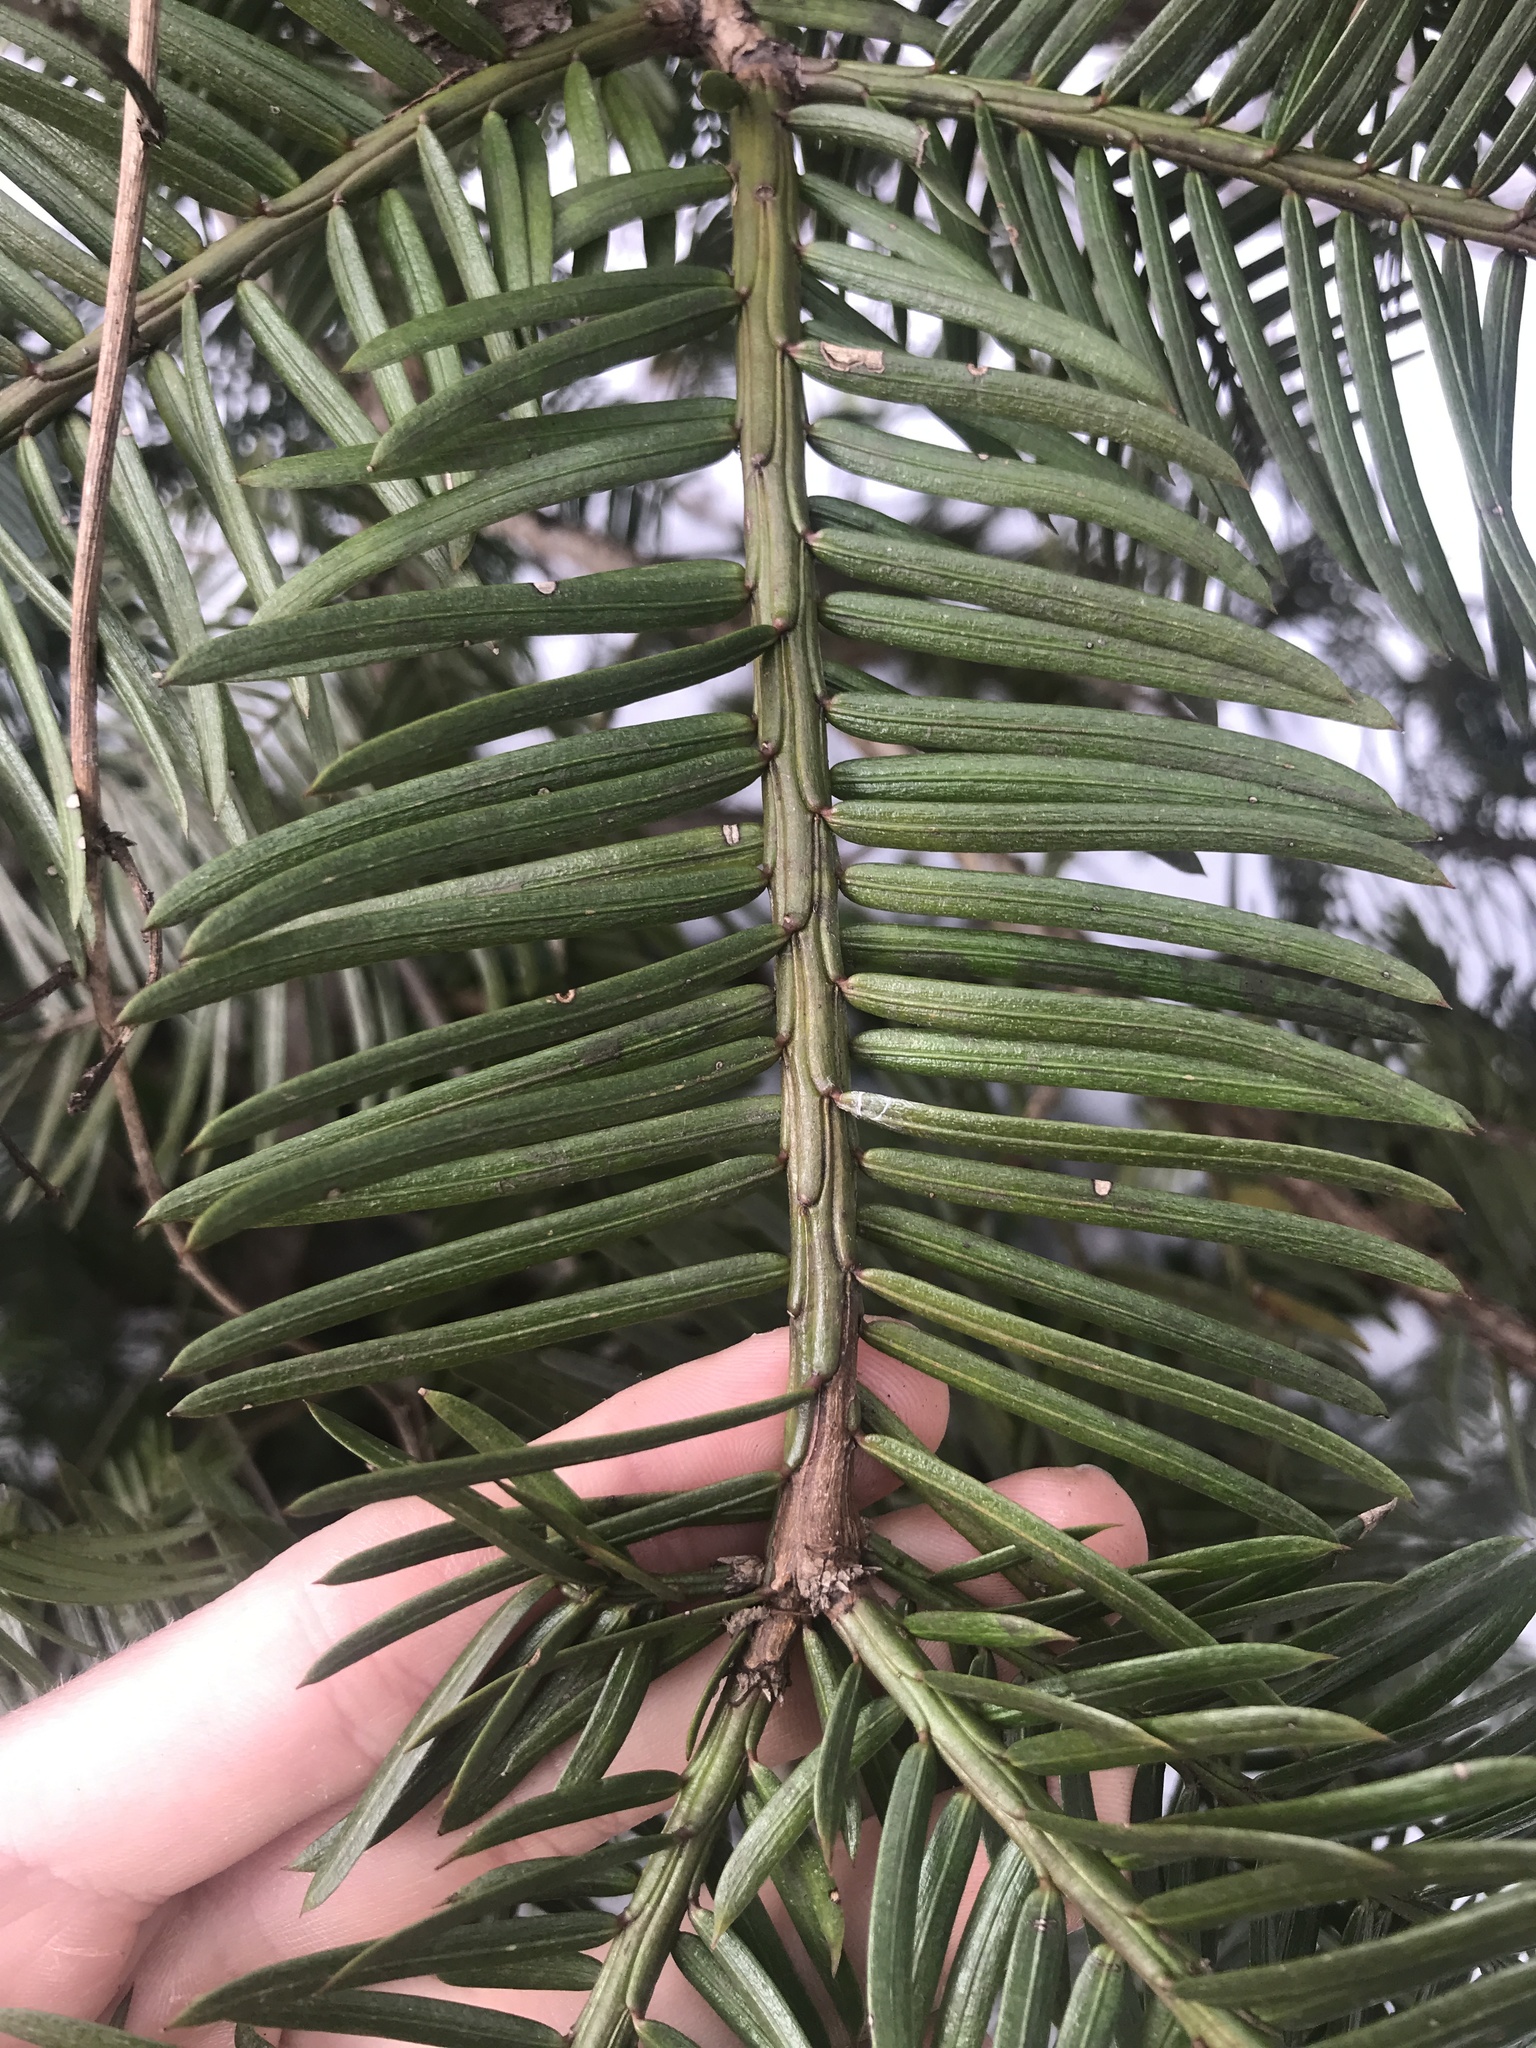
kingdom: Plantae
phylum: Tracheophyta
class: Pinopsida
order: Pinales
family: Cephalotaxaceae
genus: Cephalotaxus
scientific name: Cephalotaxus harringtonia
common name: Japanese plum-yew
